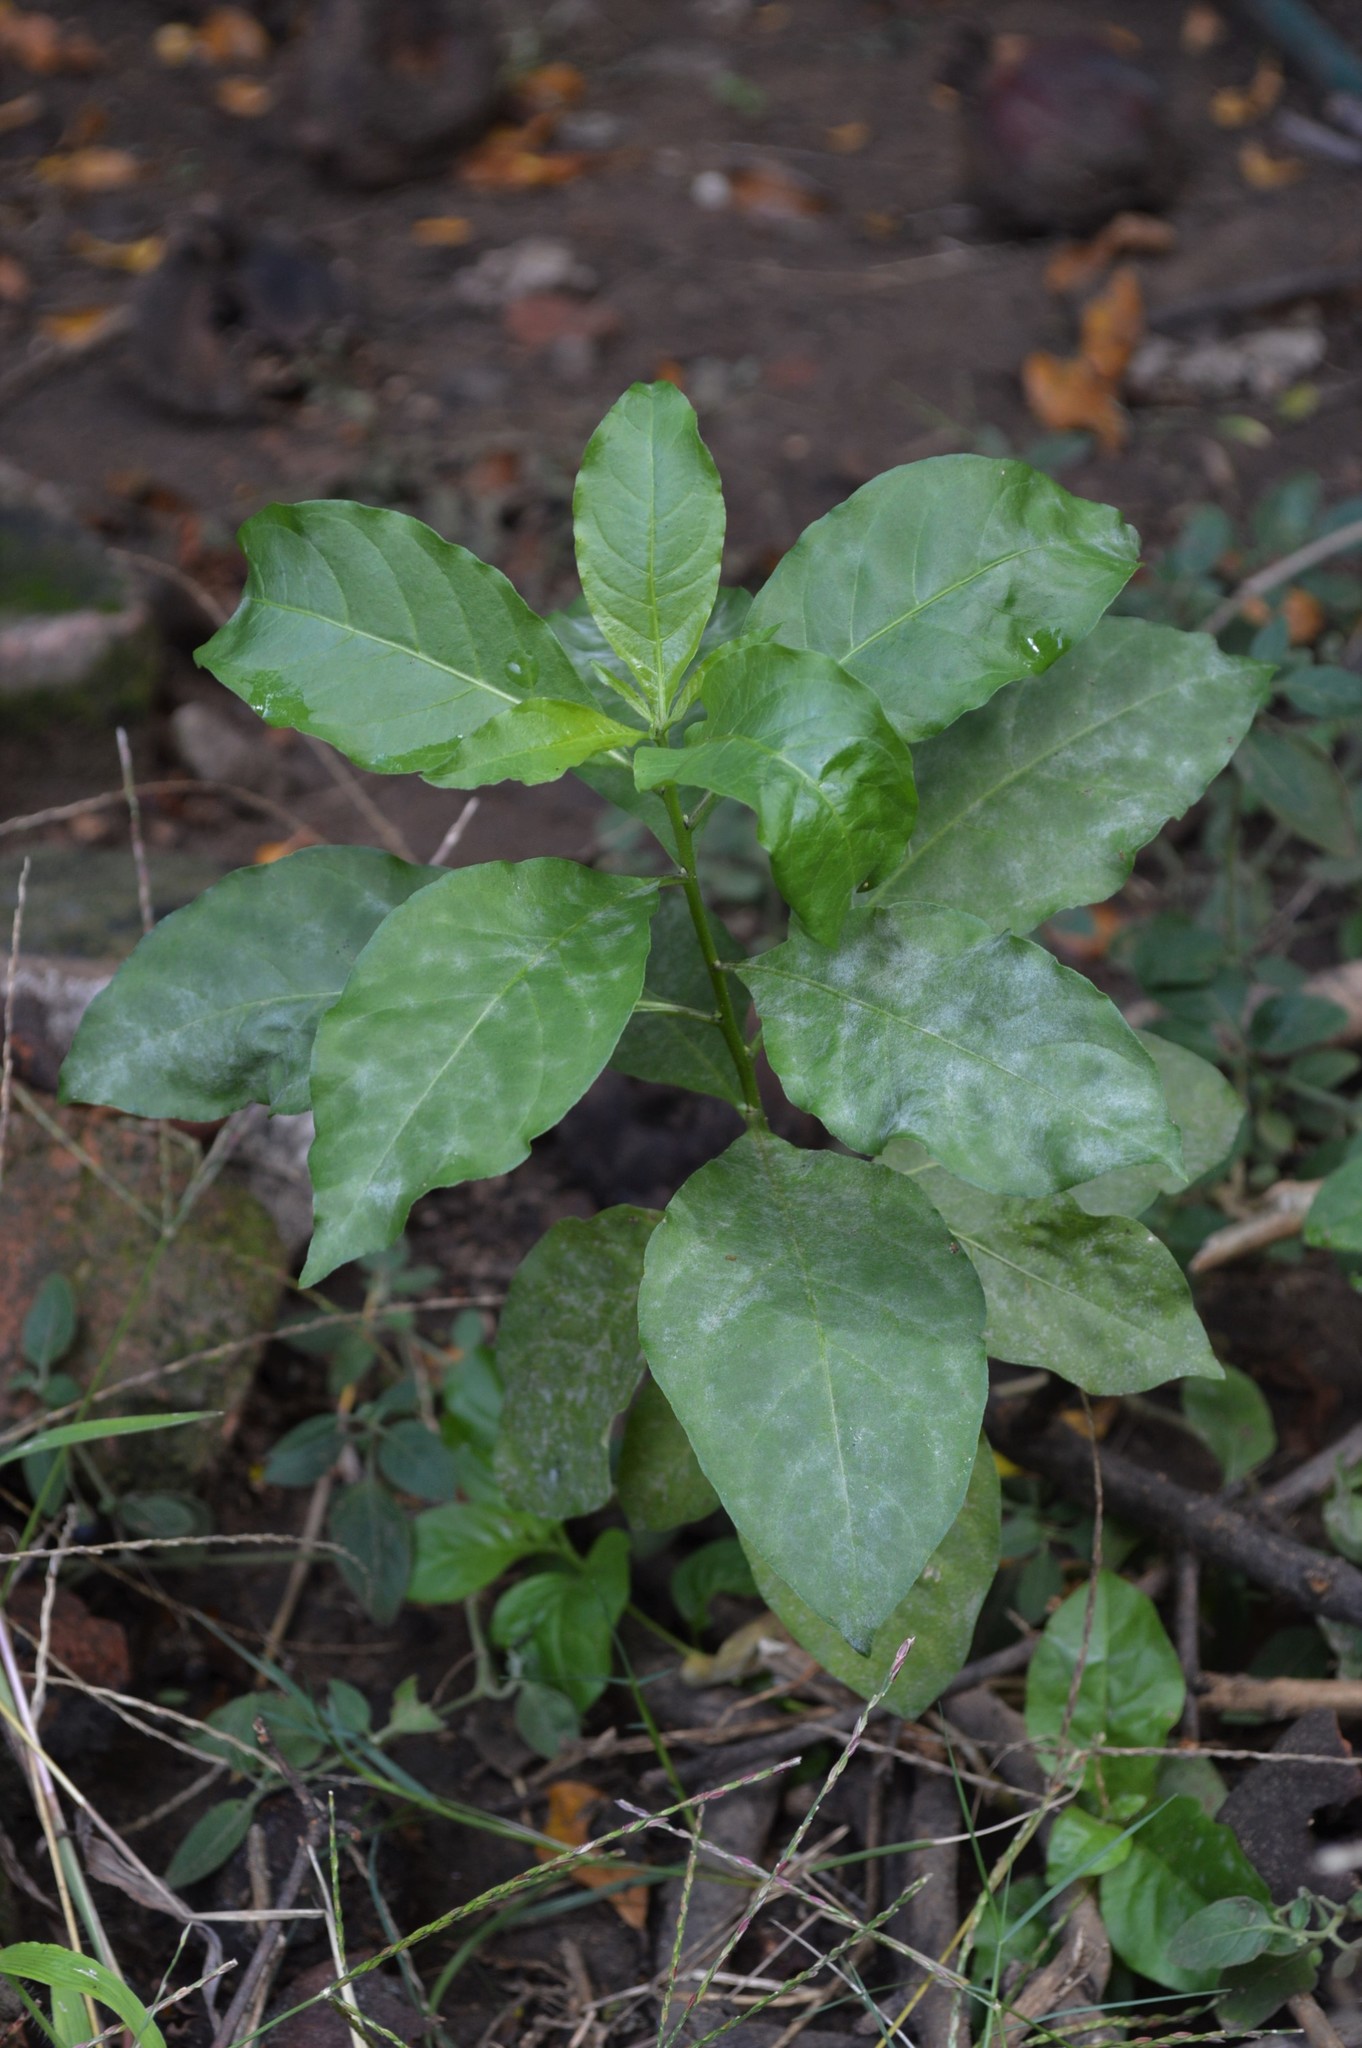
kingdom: Plantae
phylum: Tracheophyta
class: Magnoliopsida
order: Solanales
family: Solanaceae
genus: Cestrum
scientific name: Cestrum parqui
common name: Chilean cestrum
